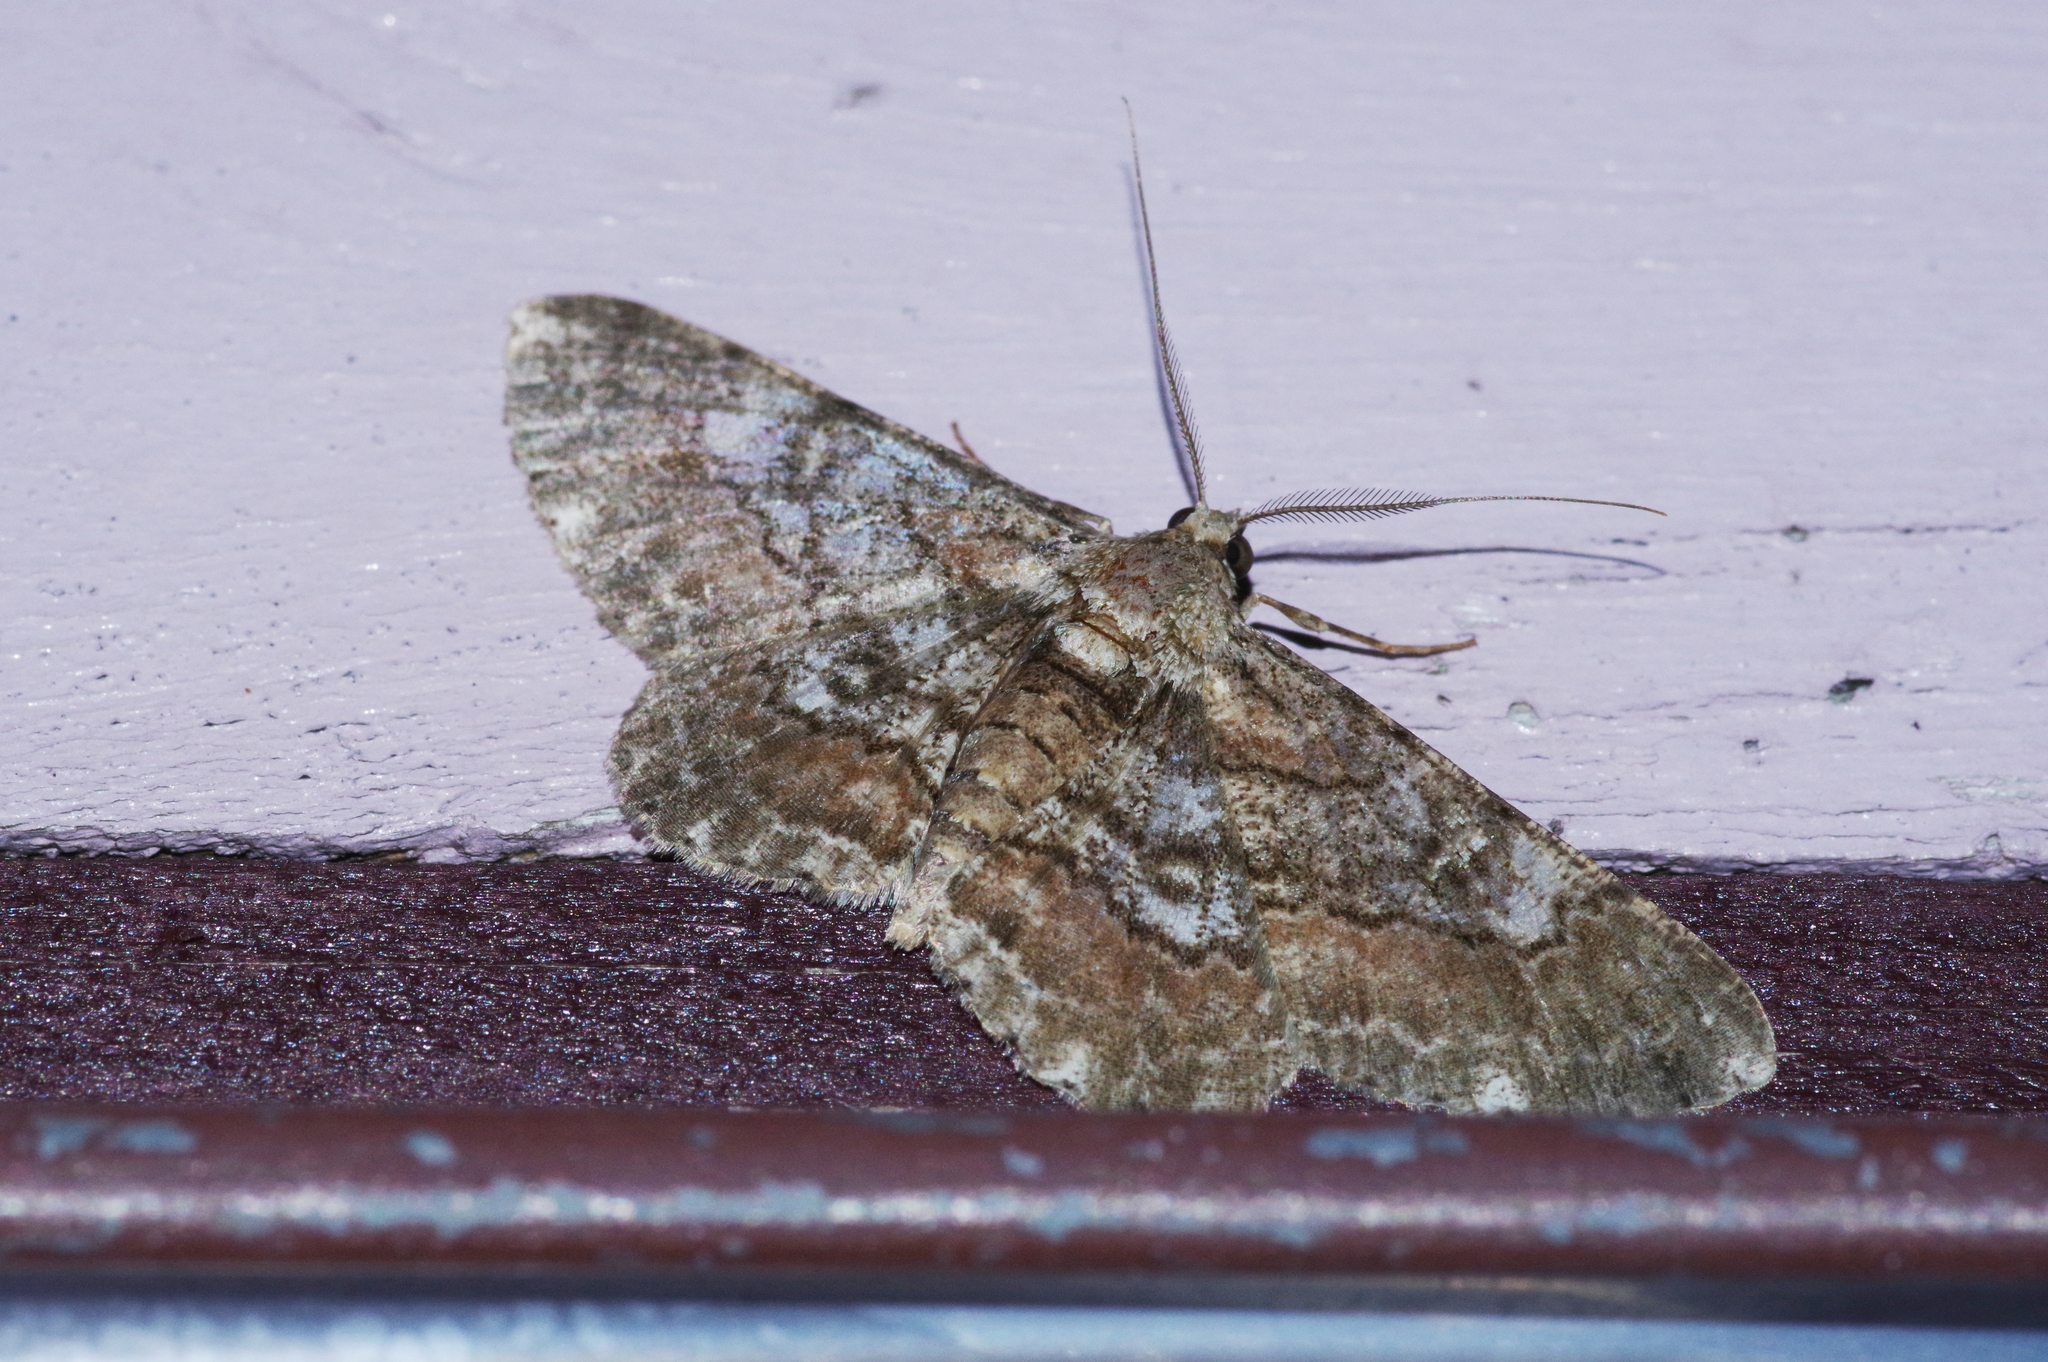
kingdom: Animalia
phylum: Arthropoda
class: Insecta
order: Lepidoptera
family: Geometridae
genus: Cleora
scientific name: Cleora repulsaria
